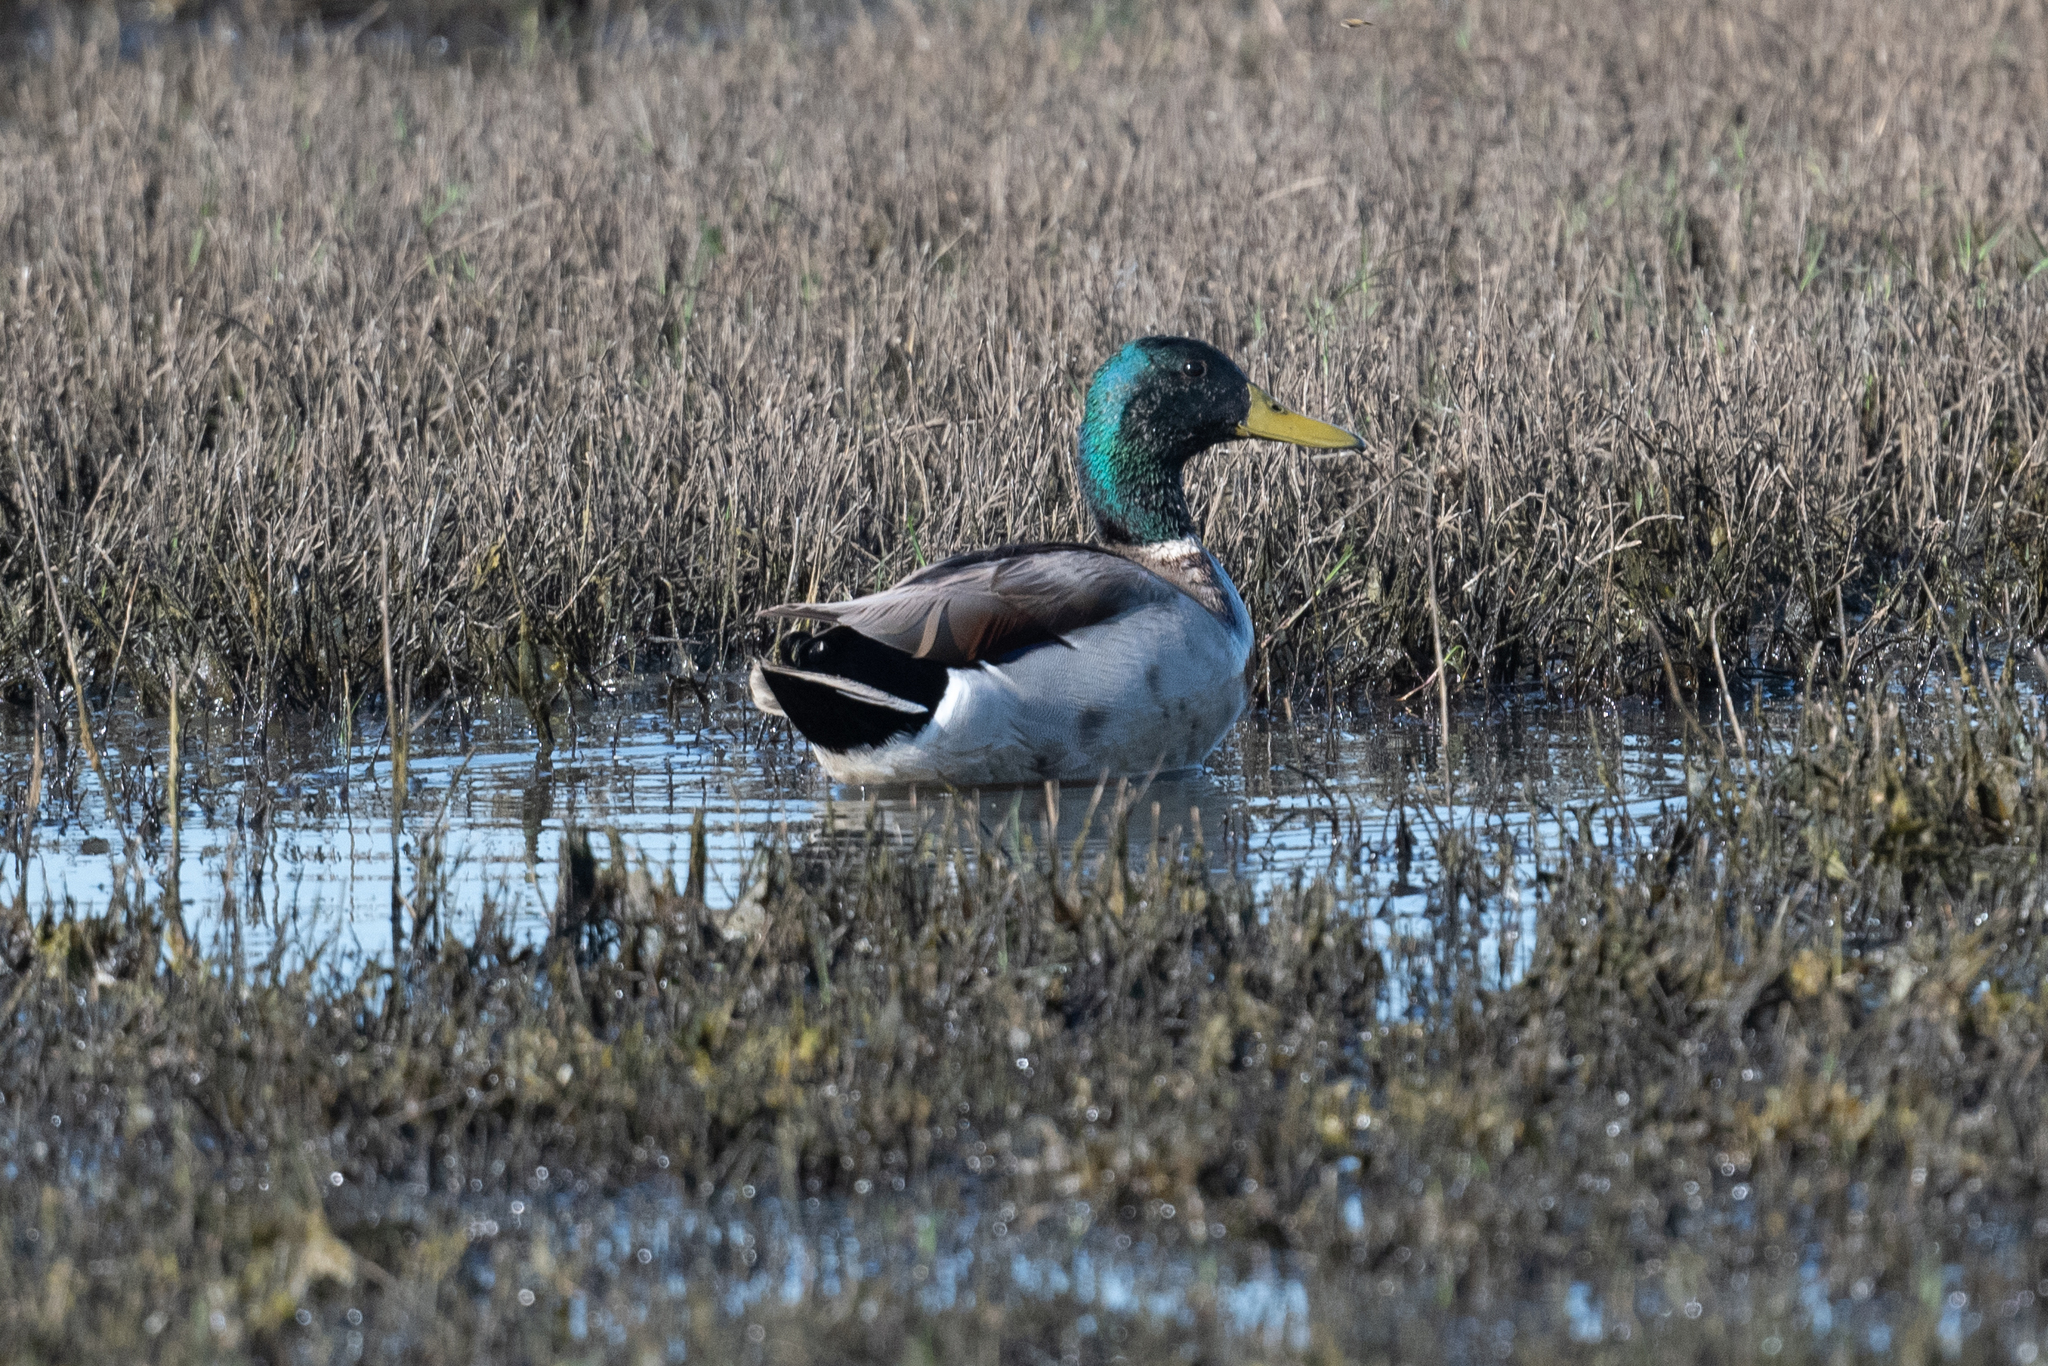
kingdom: Animalia
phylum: Chordata
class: Aves
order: Anseriformes
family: Anatidae
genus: Anas
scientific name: Anas platyrhynchos
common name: Mallard
